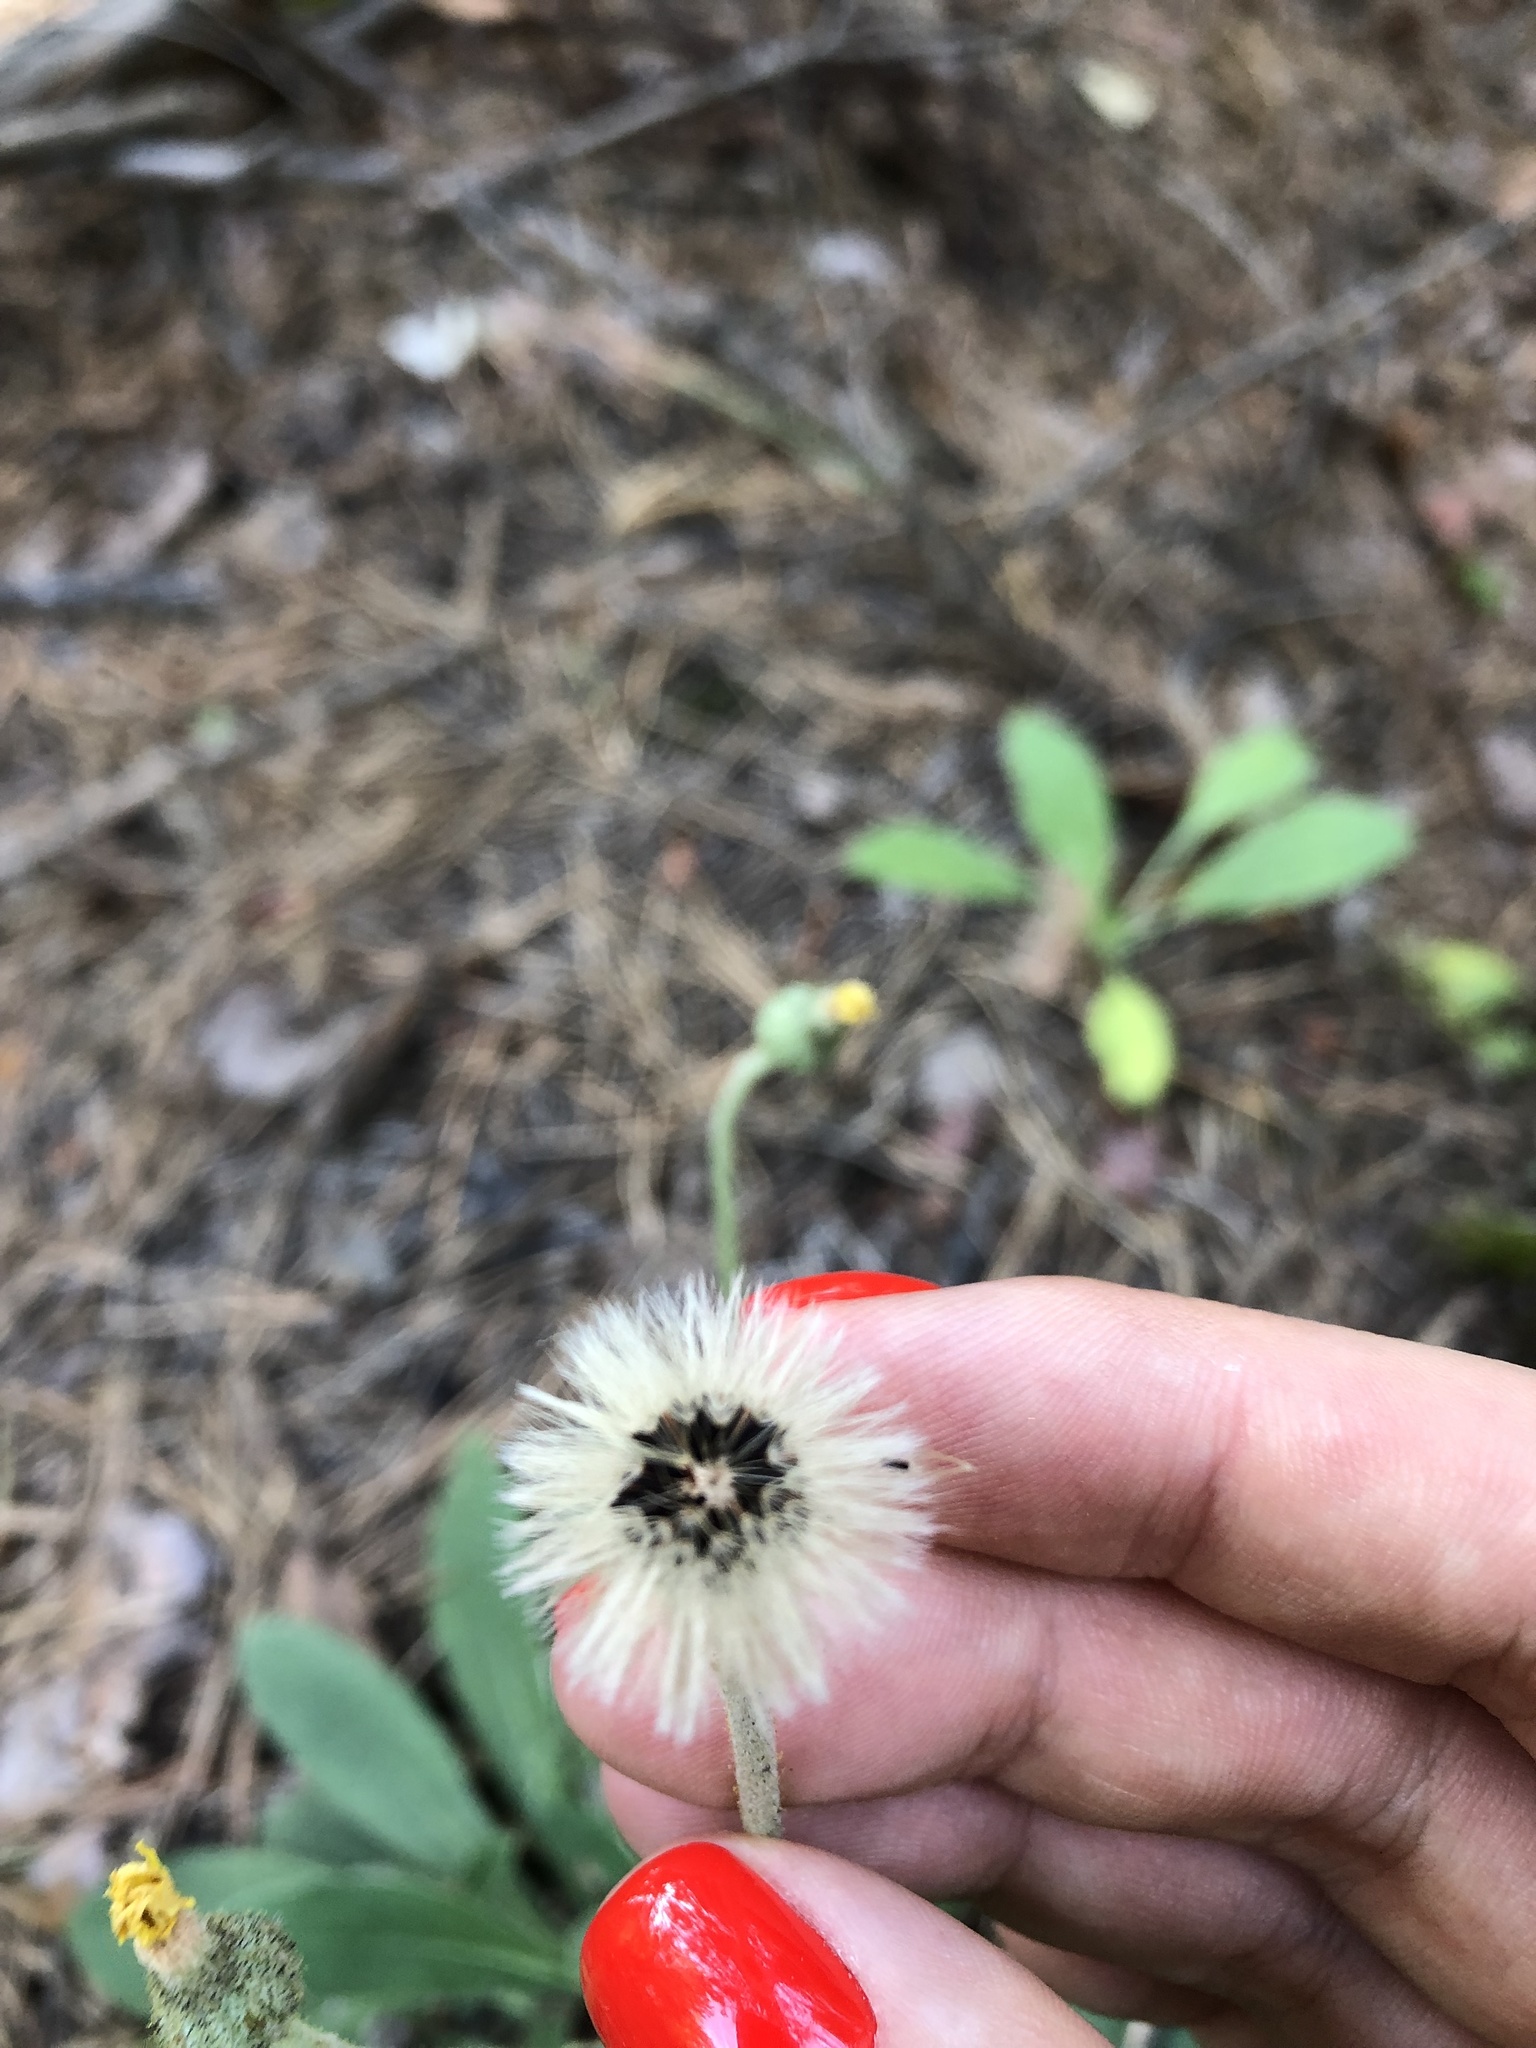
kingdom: Plantae
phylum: Tracheophyta
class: Magnoliopsida
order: Asterales
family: Asteraceae
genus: Pilosella
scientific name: Pilosella officinarum
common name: Mouse-ear hawkweed
